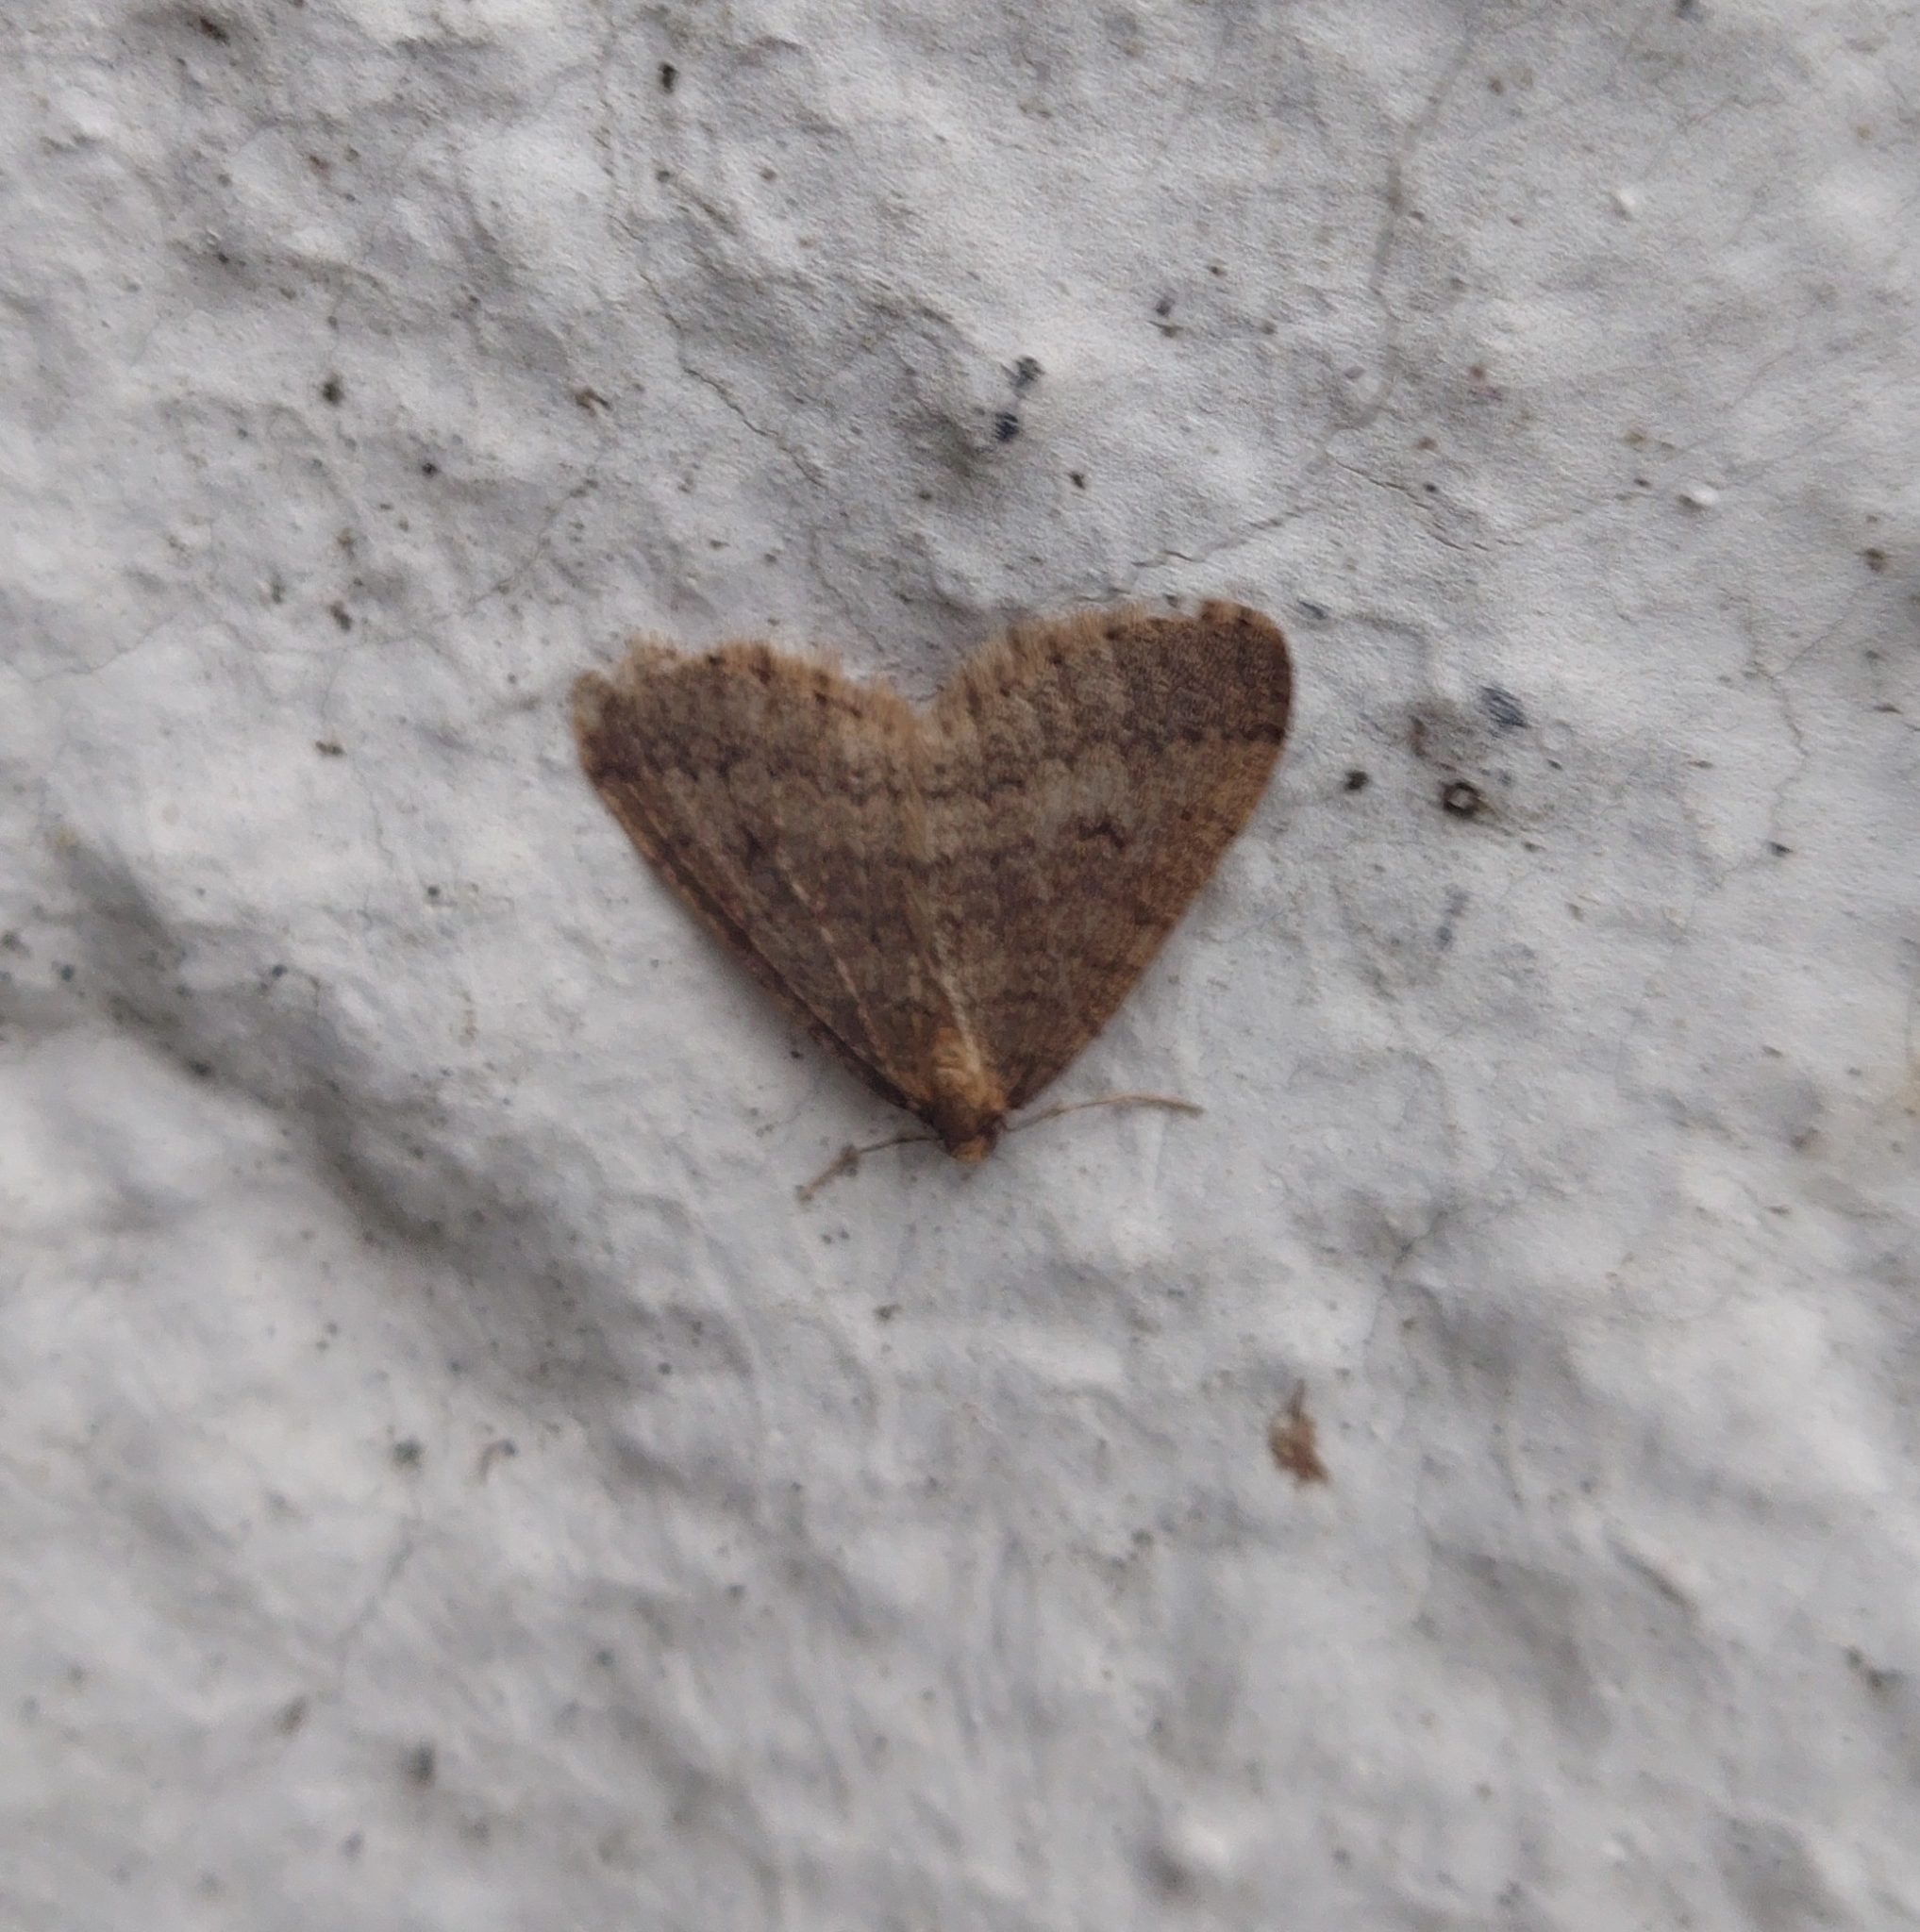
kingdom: Animalia
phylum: Arthropoda
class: Insecta
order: Lepidoptera
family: Geometridae
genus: Operophtera
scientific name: Operophtera brumata
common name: Winter moth
